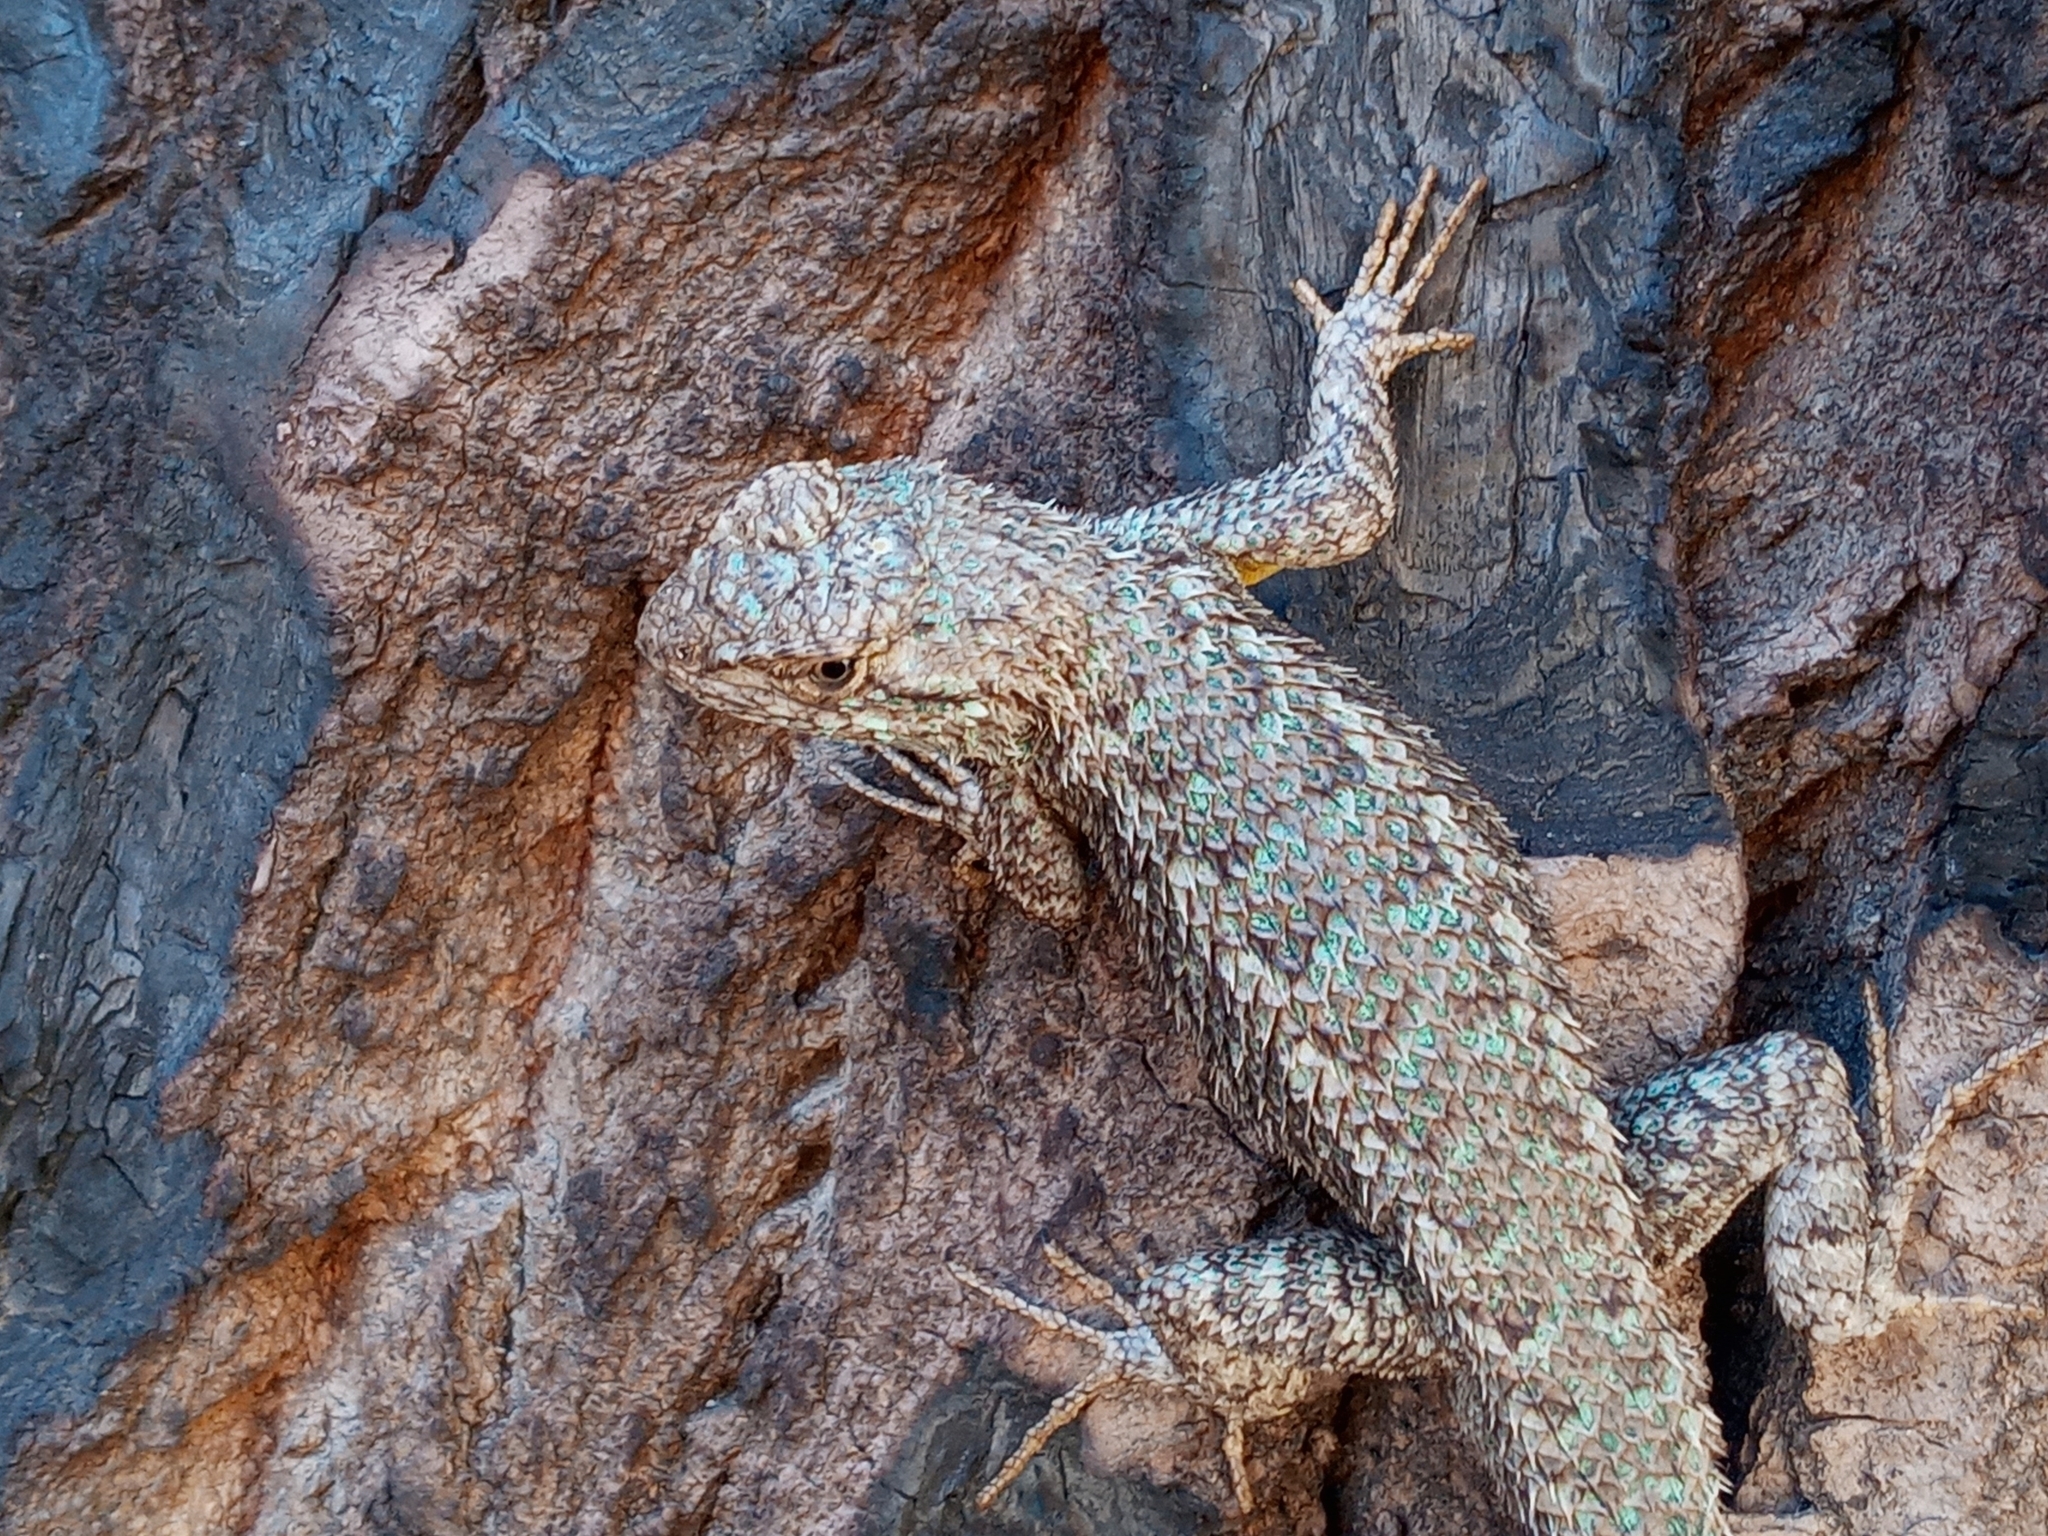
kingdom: Animalia
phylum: Chordata
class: Squamata
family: Phrynosomatidae
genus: Sceloporus
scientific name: Sceloporus occidentalis
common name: Western fence lizard
